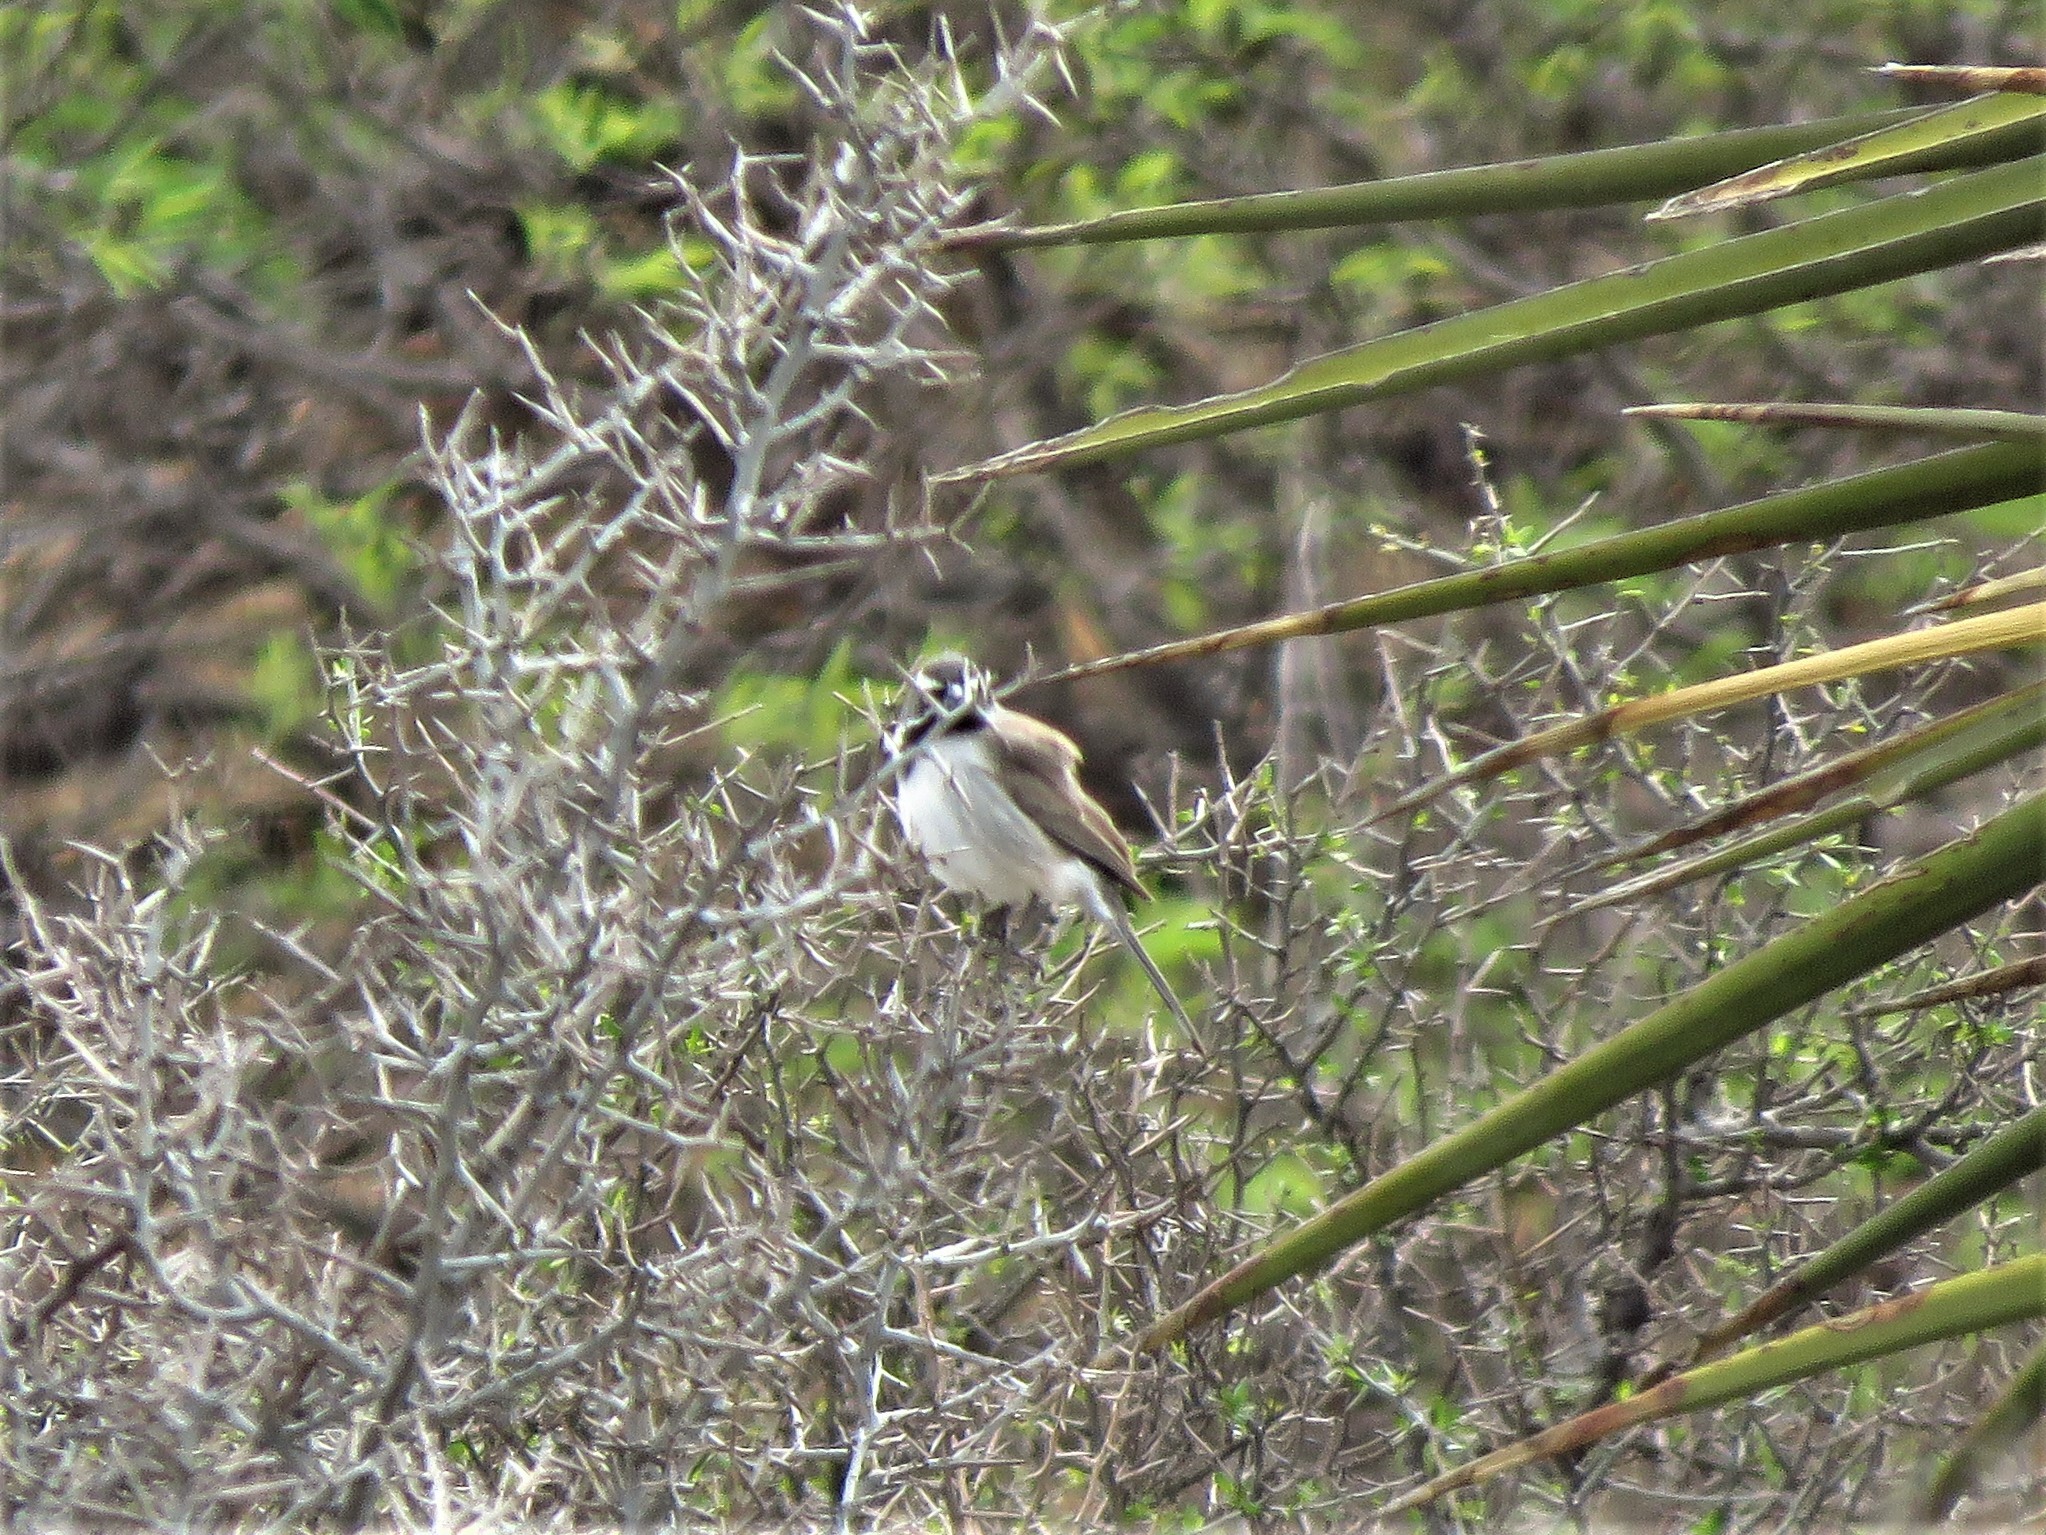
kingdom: Animalia
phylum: Chordata
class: Aves
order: Passeriformes
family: Passerellidae
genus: Amphispiza
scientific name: Amphispiza bilineata
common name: Black-throated sparrow
